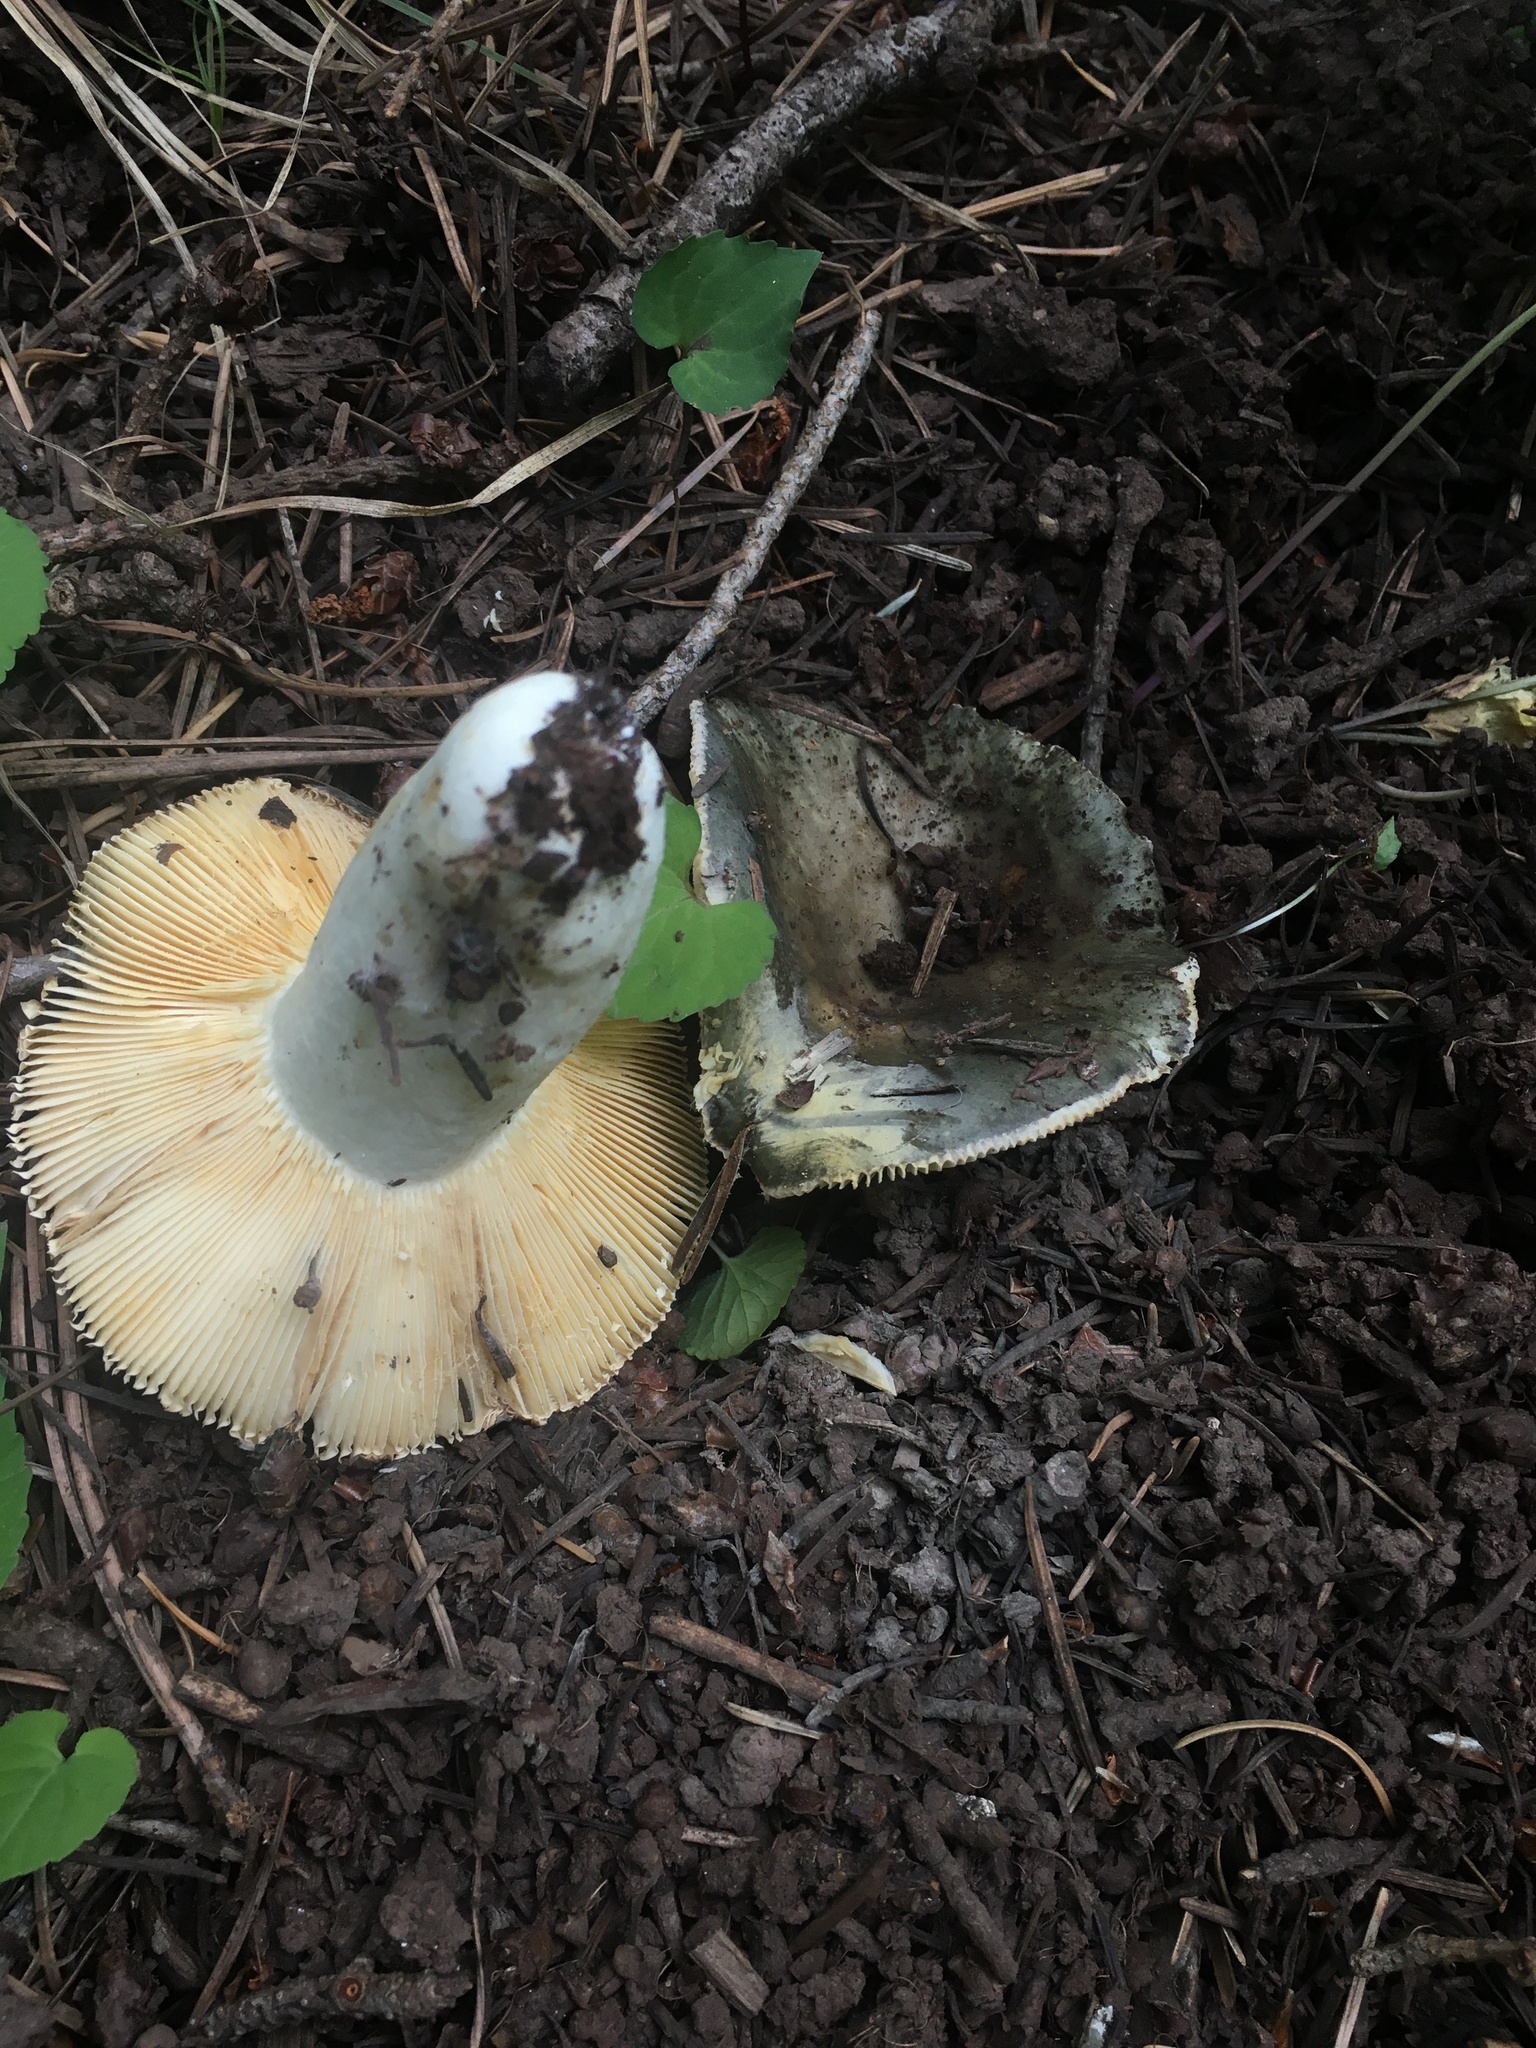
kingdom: Fungi
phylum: Basidiomycota
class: Agaricomycetes
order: Russulales
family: Russulaceae
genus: Russula
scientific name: Russula atroglauca
